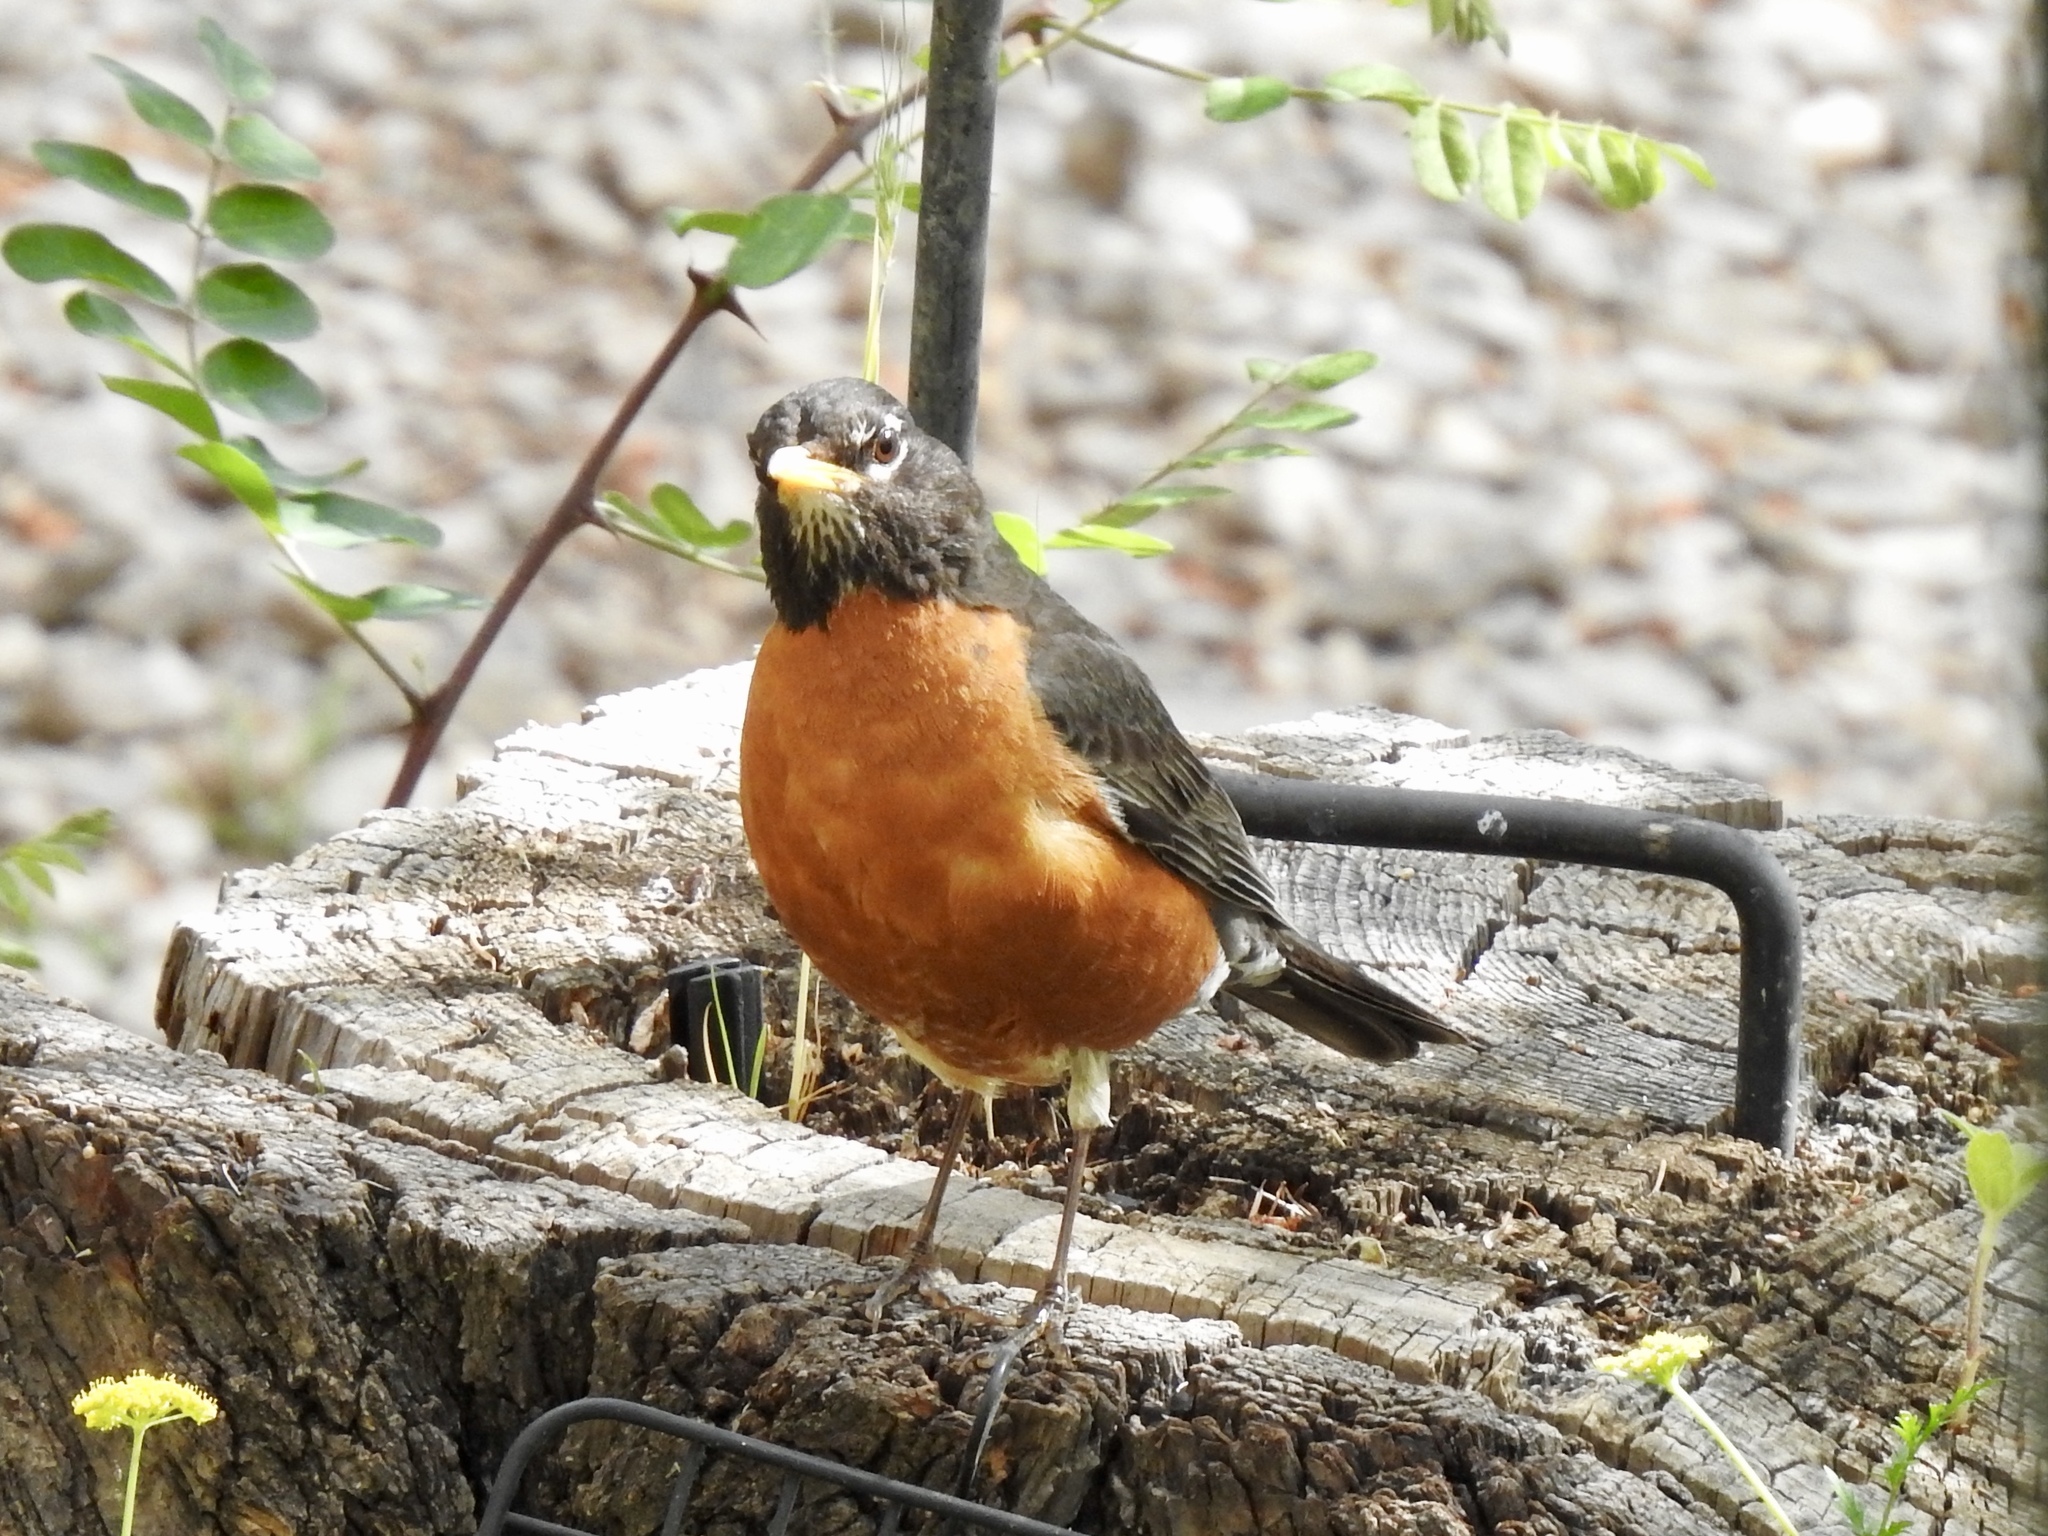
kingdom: Animalia
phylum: Chordata
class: Aves
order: Passeriformes
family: Turdidae
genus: Turdus
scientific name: Turdus migratorius
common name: American robin
